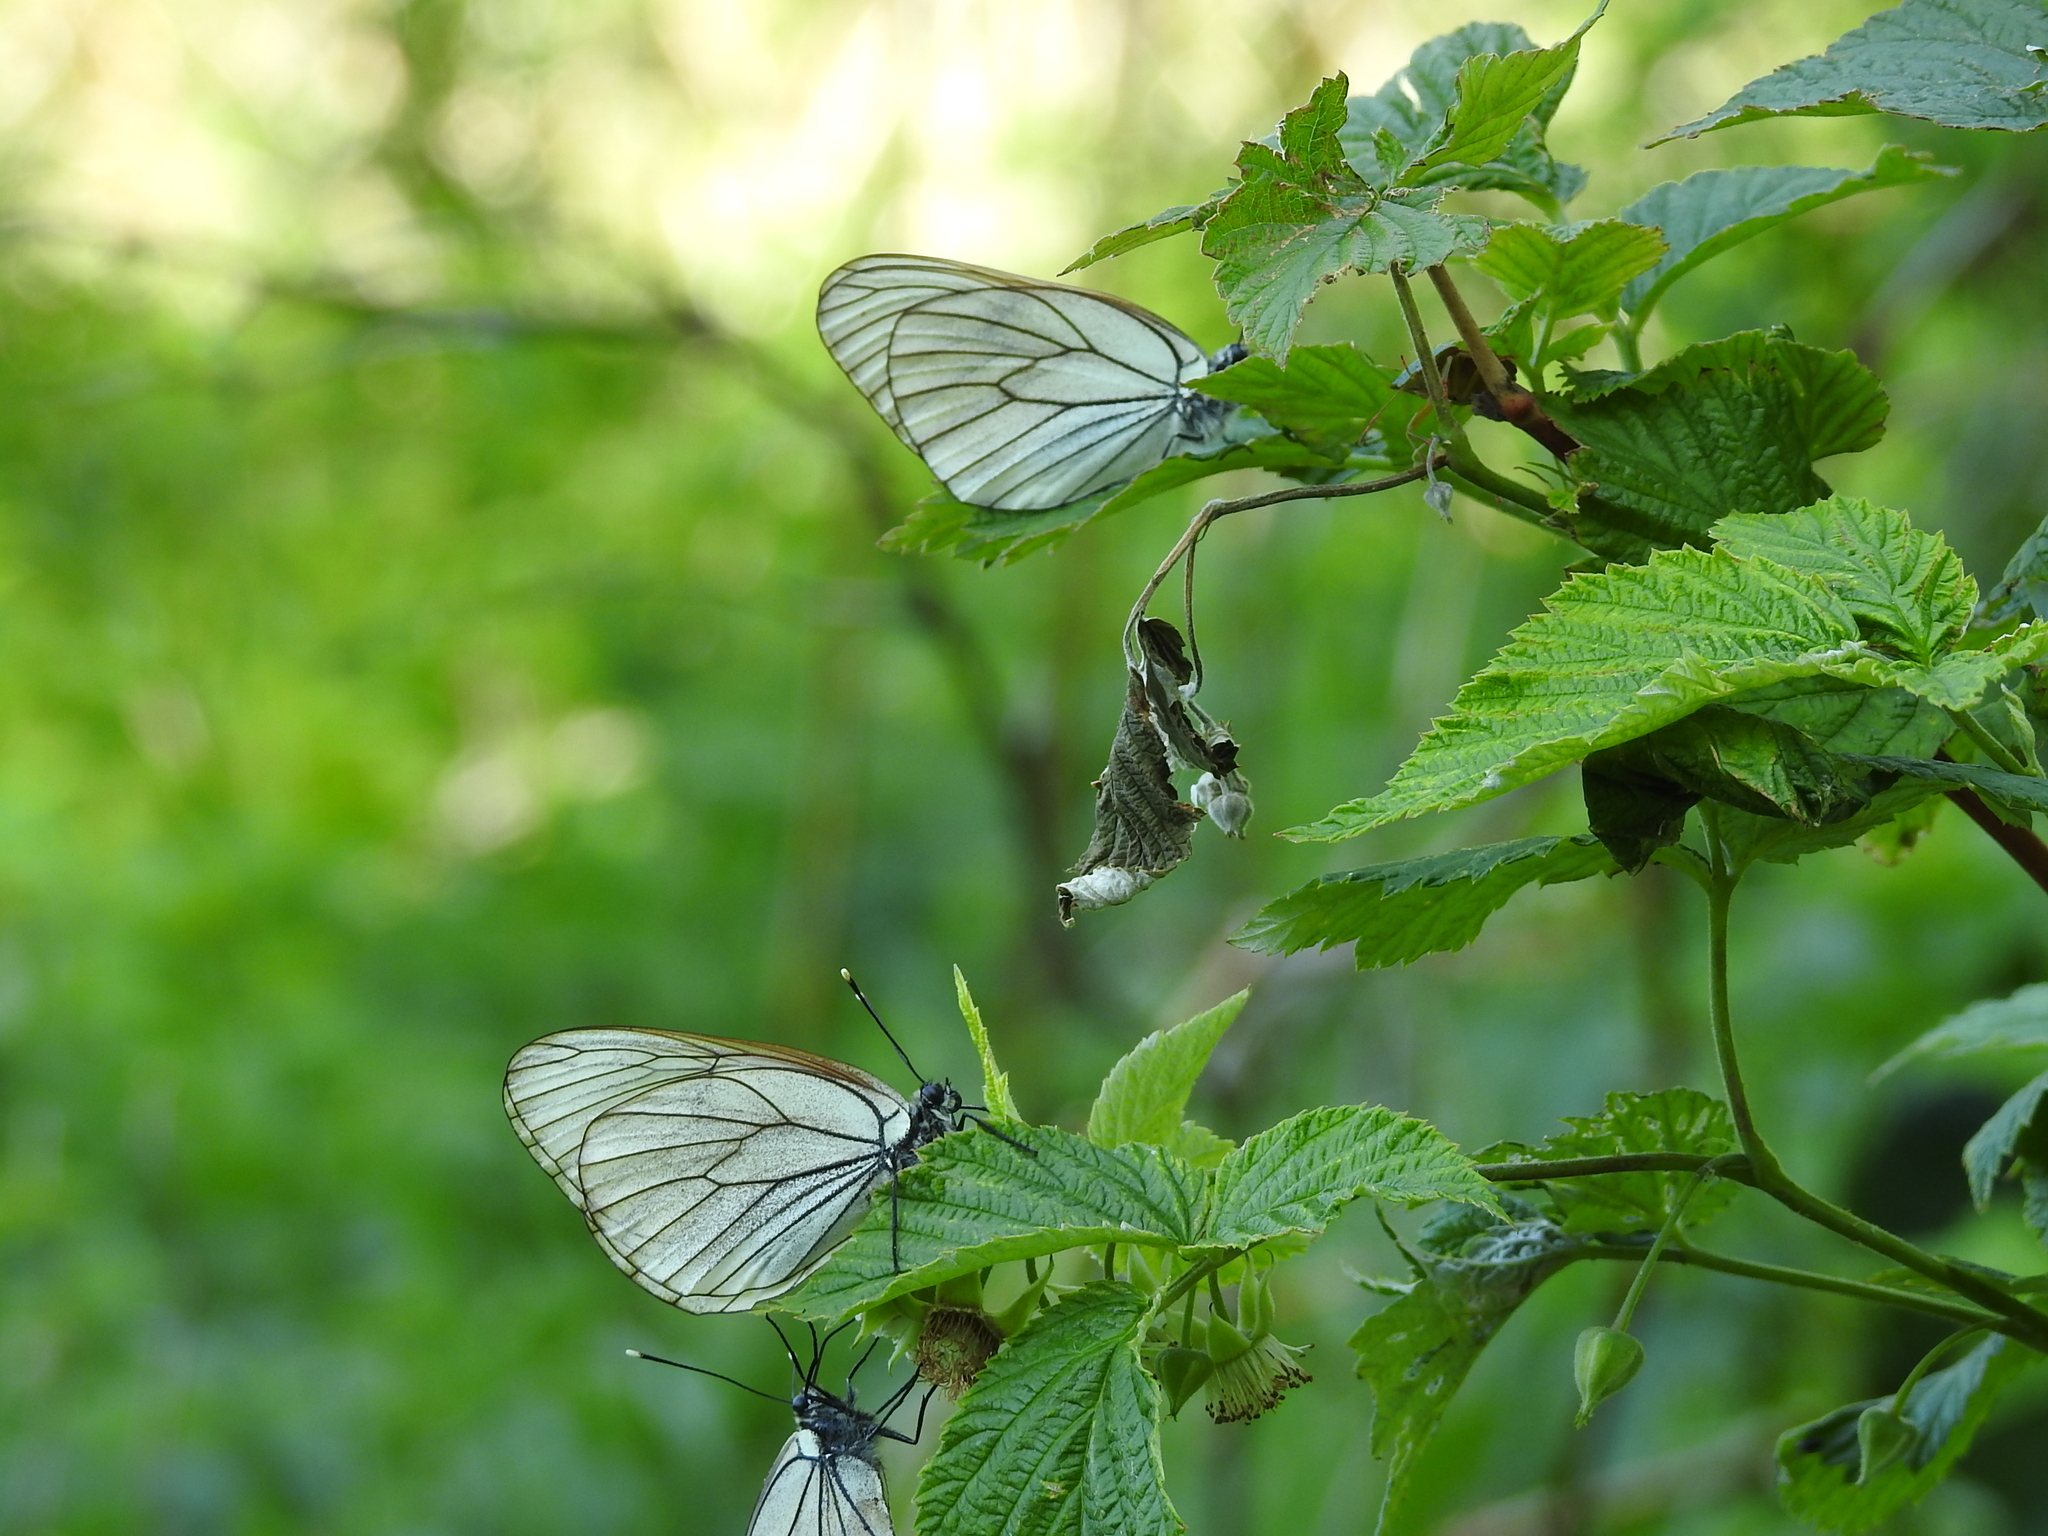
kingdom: Animalia
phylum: Arthropoda
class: Insecta
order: Lepidoptera
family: Pieridae
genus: Aporia
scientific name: Aporia crataegi
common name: Black-veined white
